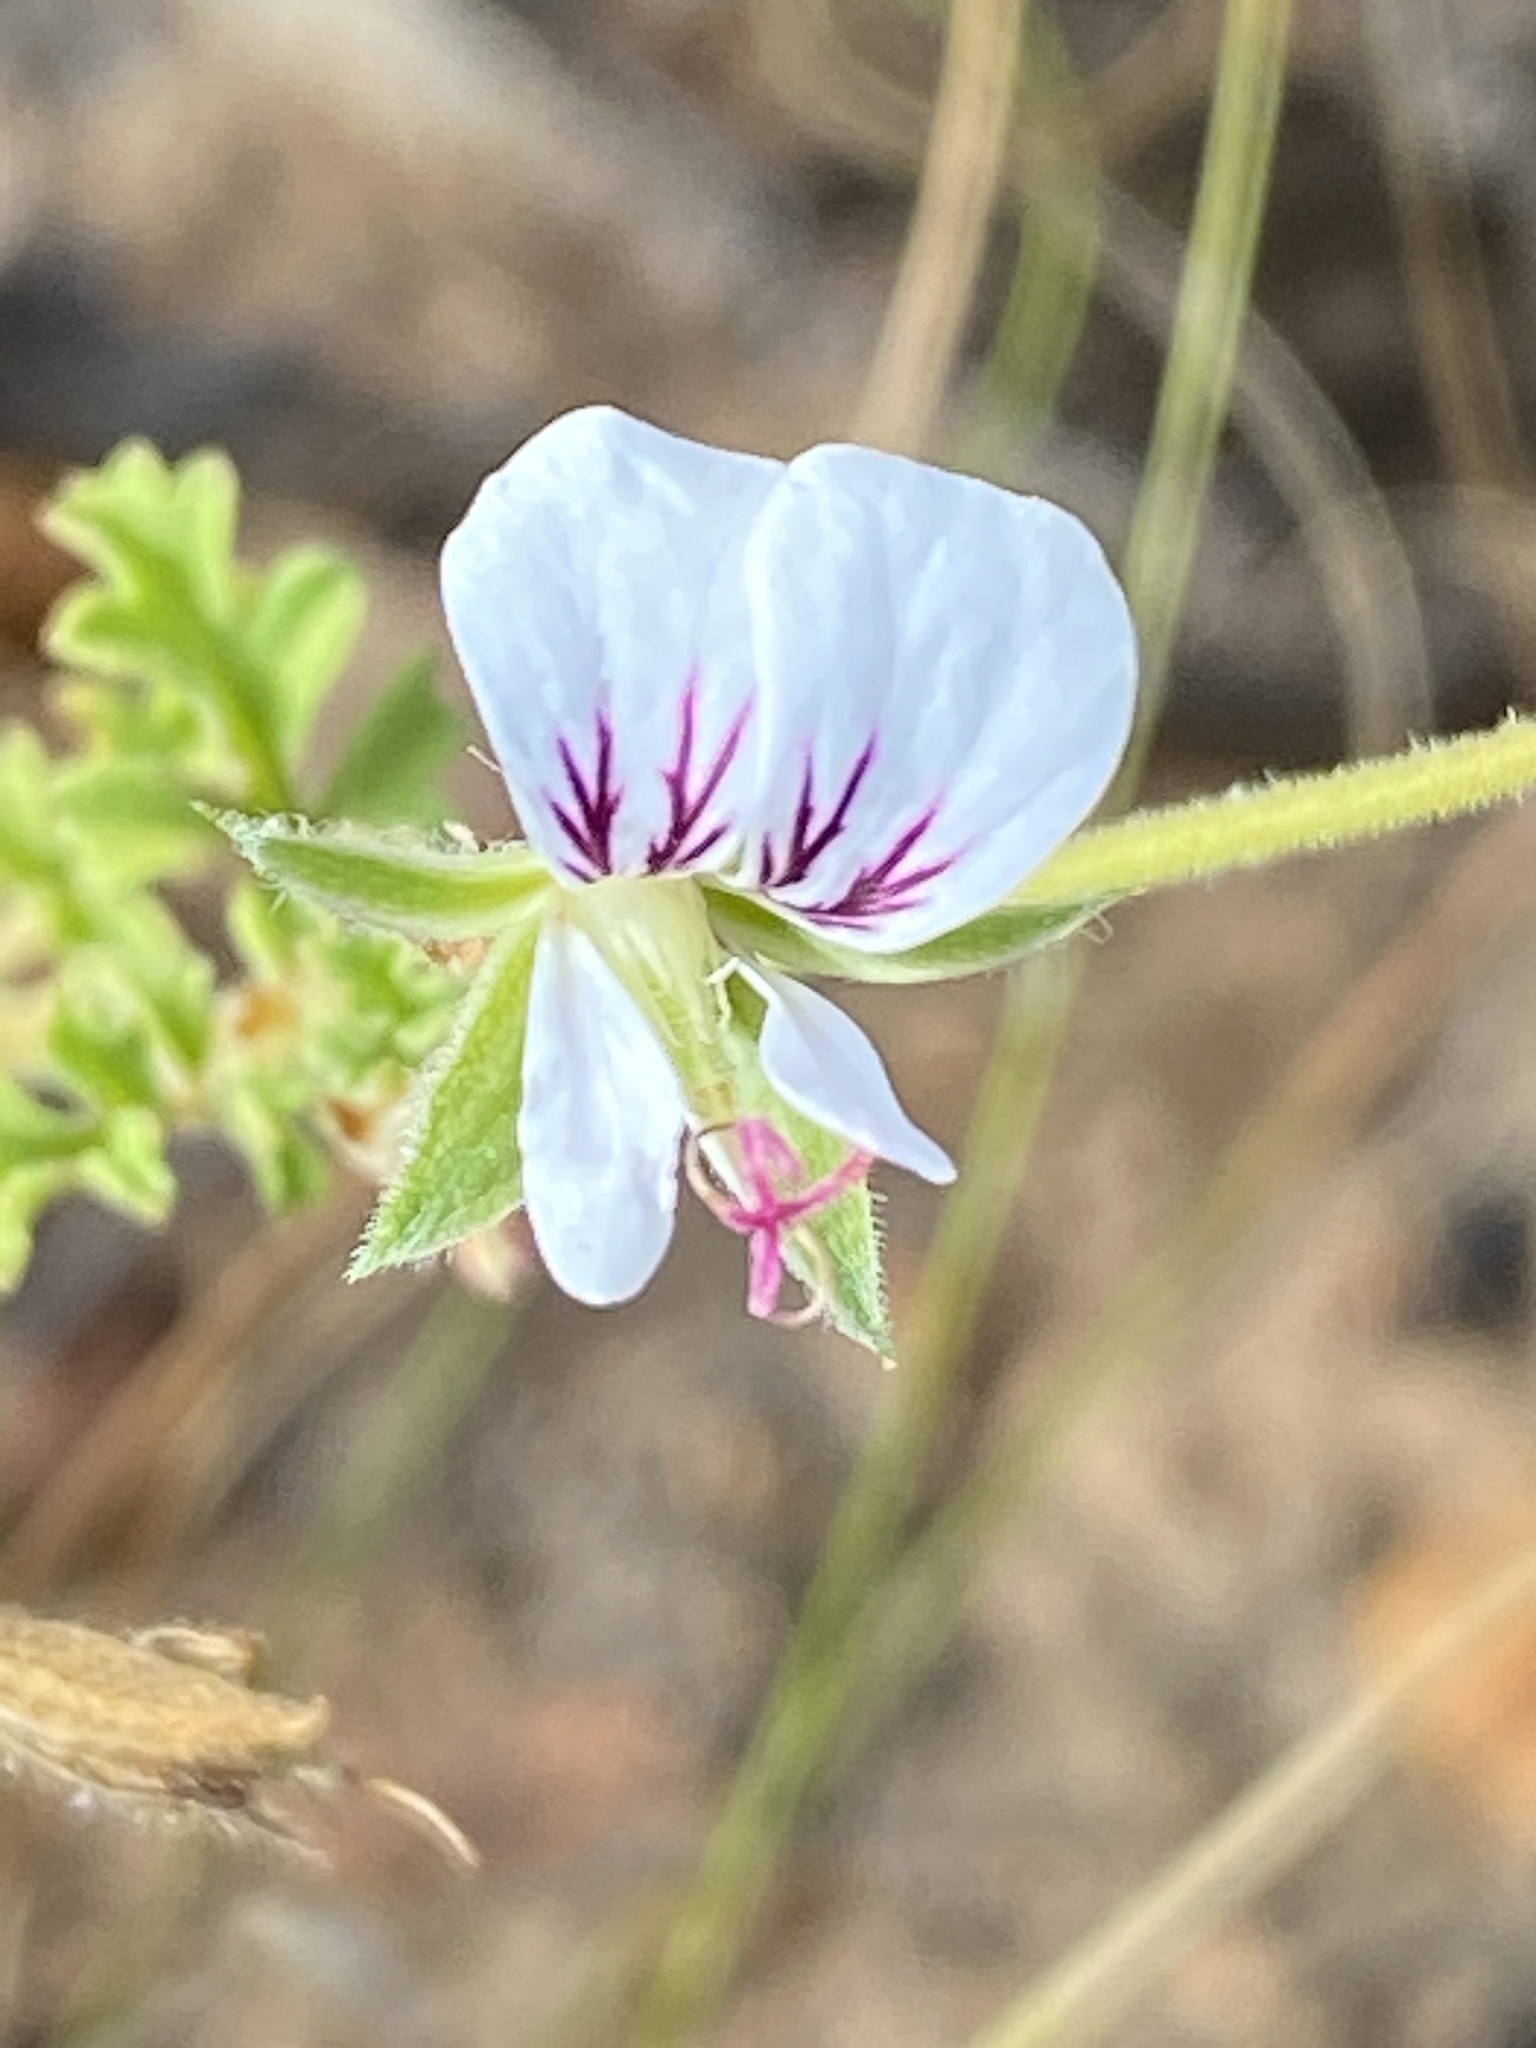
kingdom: Plantae
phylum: Tracheophyta
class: Magnoliopsida
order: Geraniales
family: Geraniaceae
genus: Pelargonium
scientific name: Pelargonium myrrhifolium
